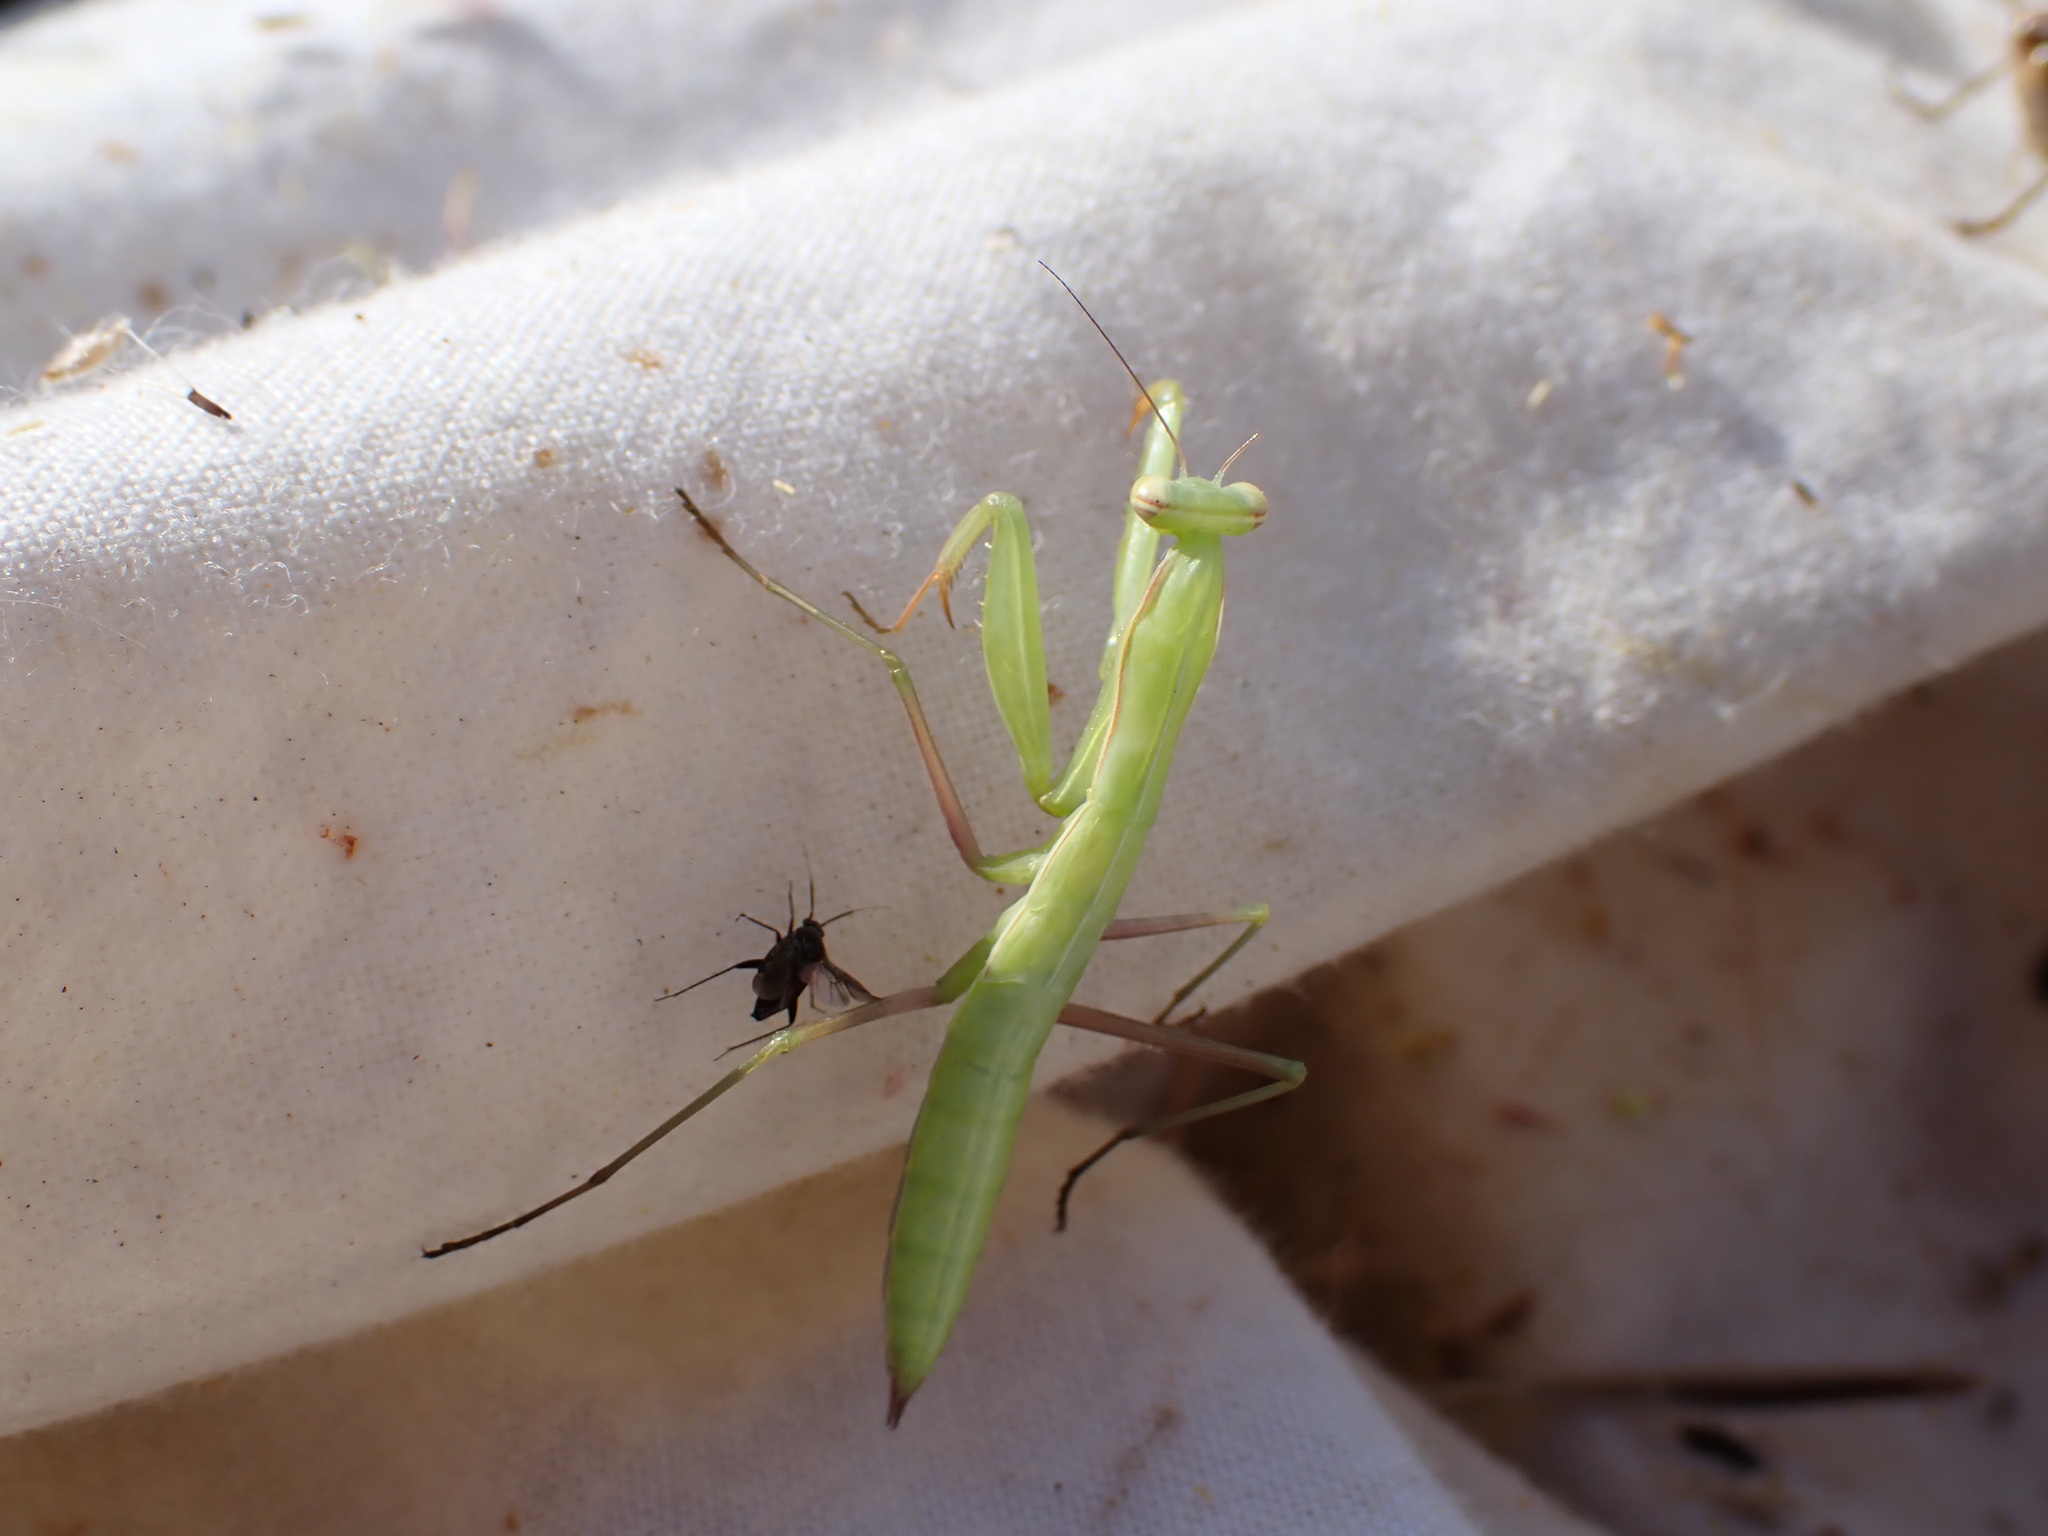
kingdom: Animalia
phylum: Arthropoda
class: Insecta
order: Mantodea
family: Mantidae
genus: Mantis
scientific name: Mantis religiosa
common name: Praying mantis
